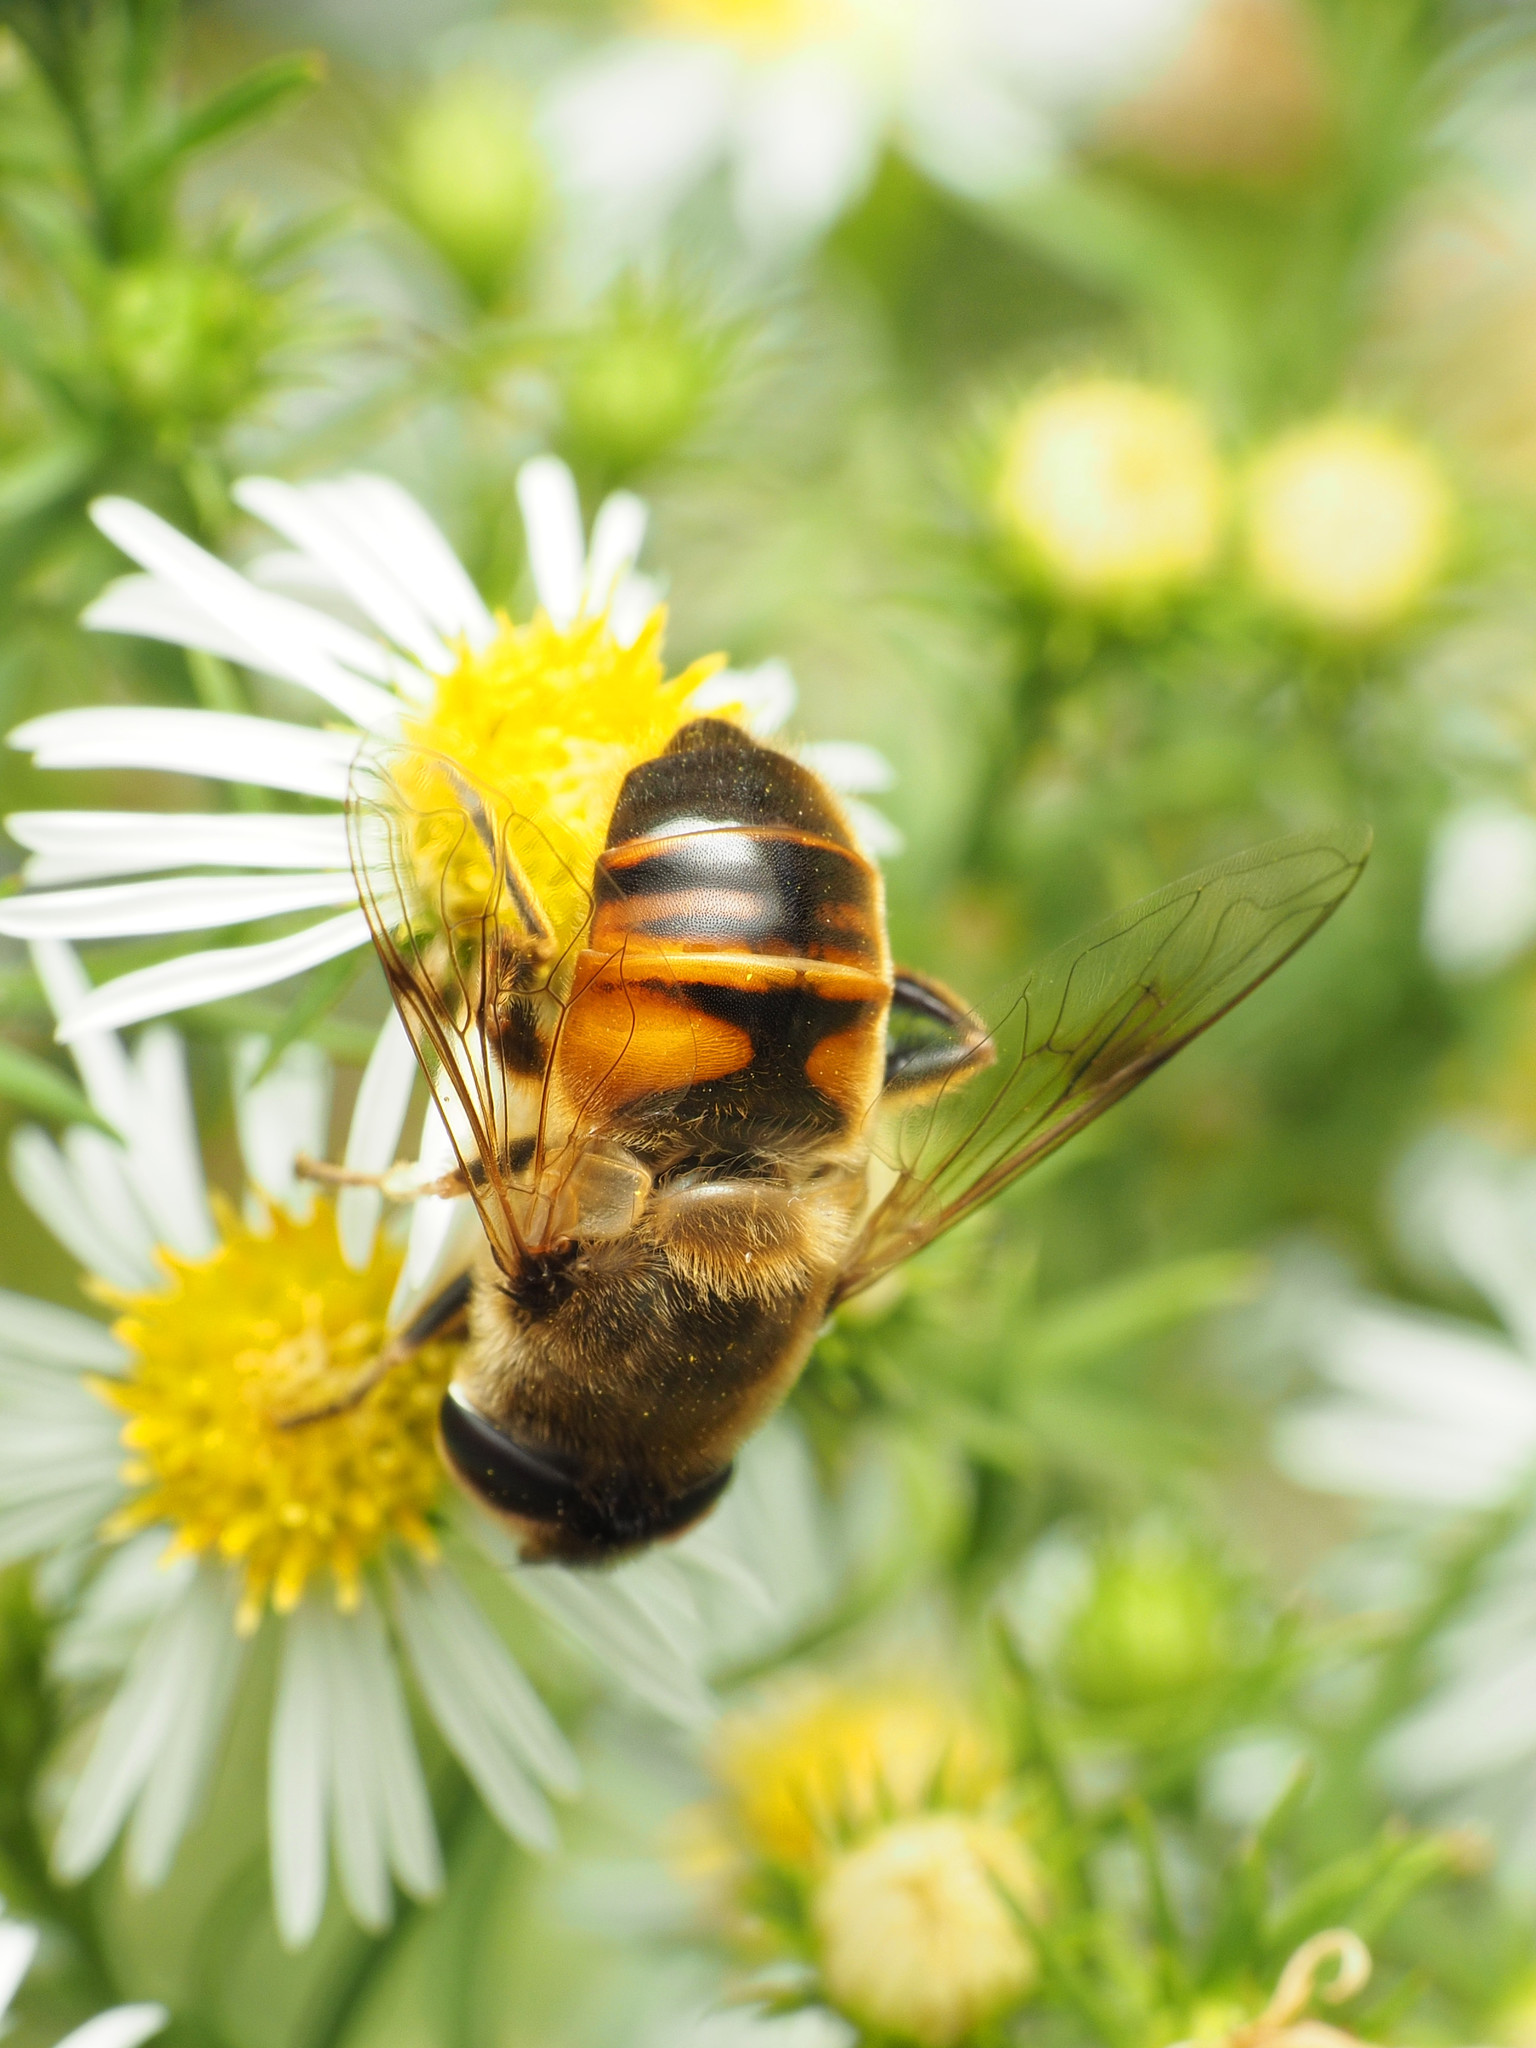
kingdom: Animalia
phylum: Arthropoda
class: Insecta
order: Diptera
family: Syrphidae
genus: Eristalis
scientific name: Eristalis tenax
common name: Drone fly
